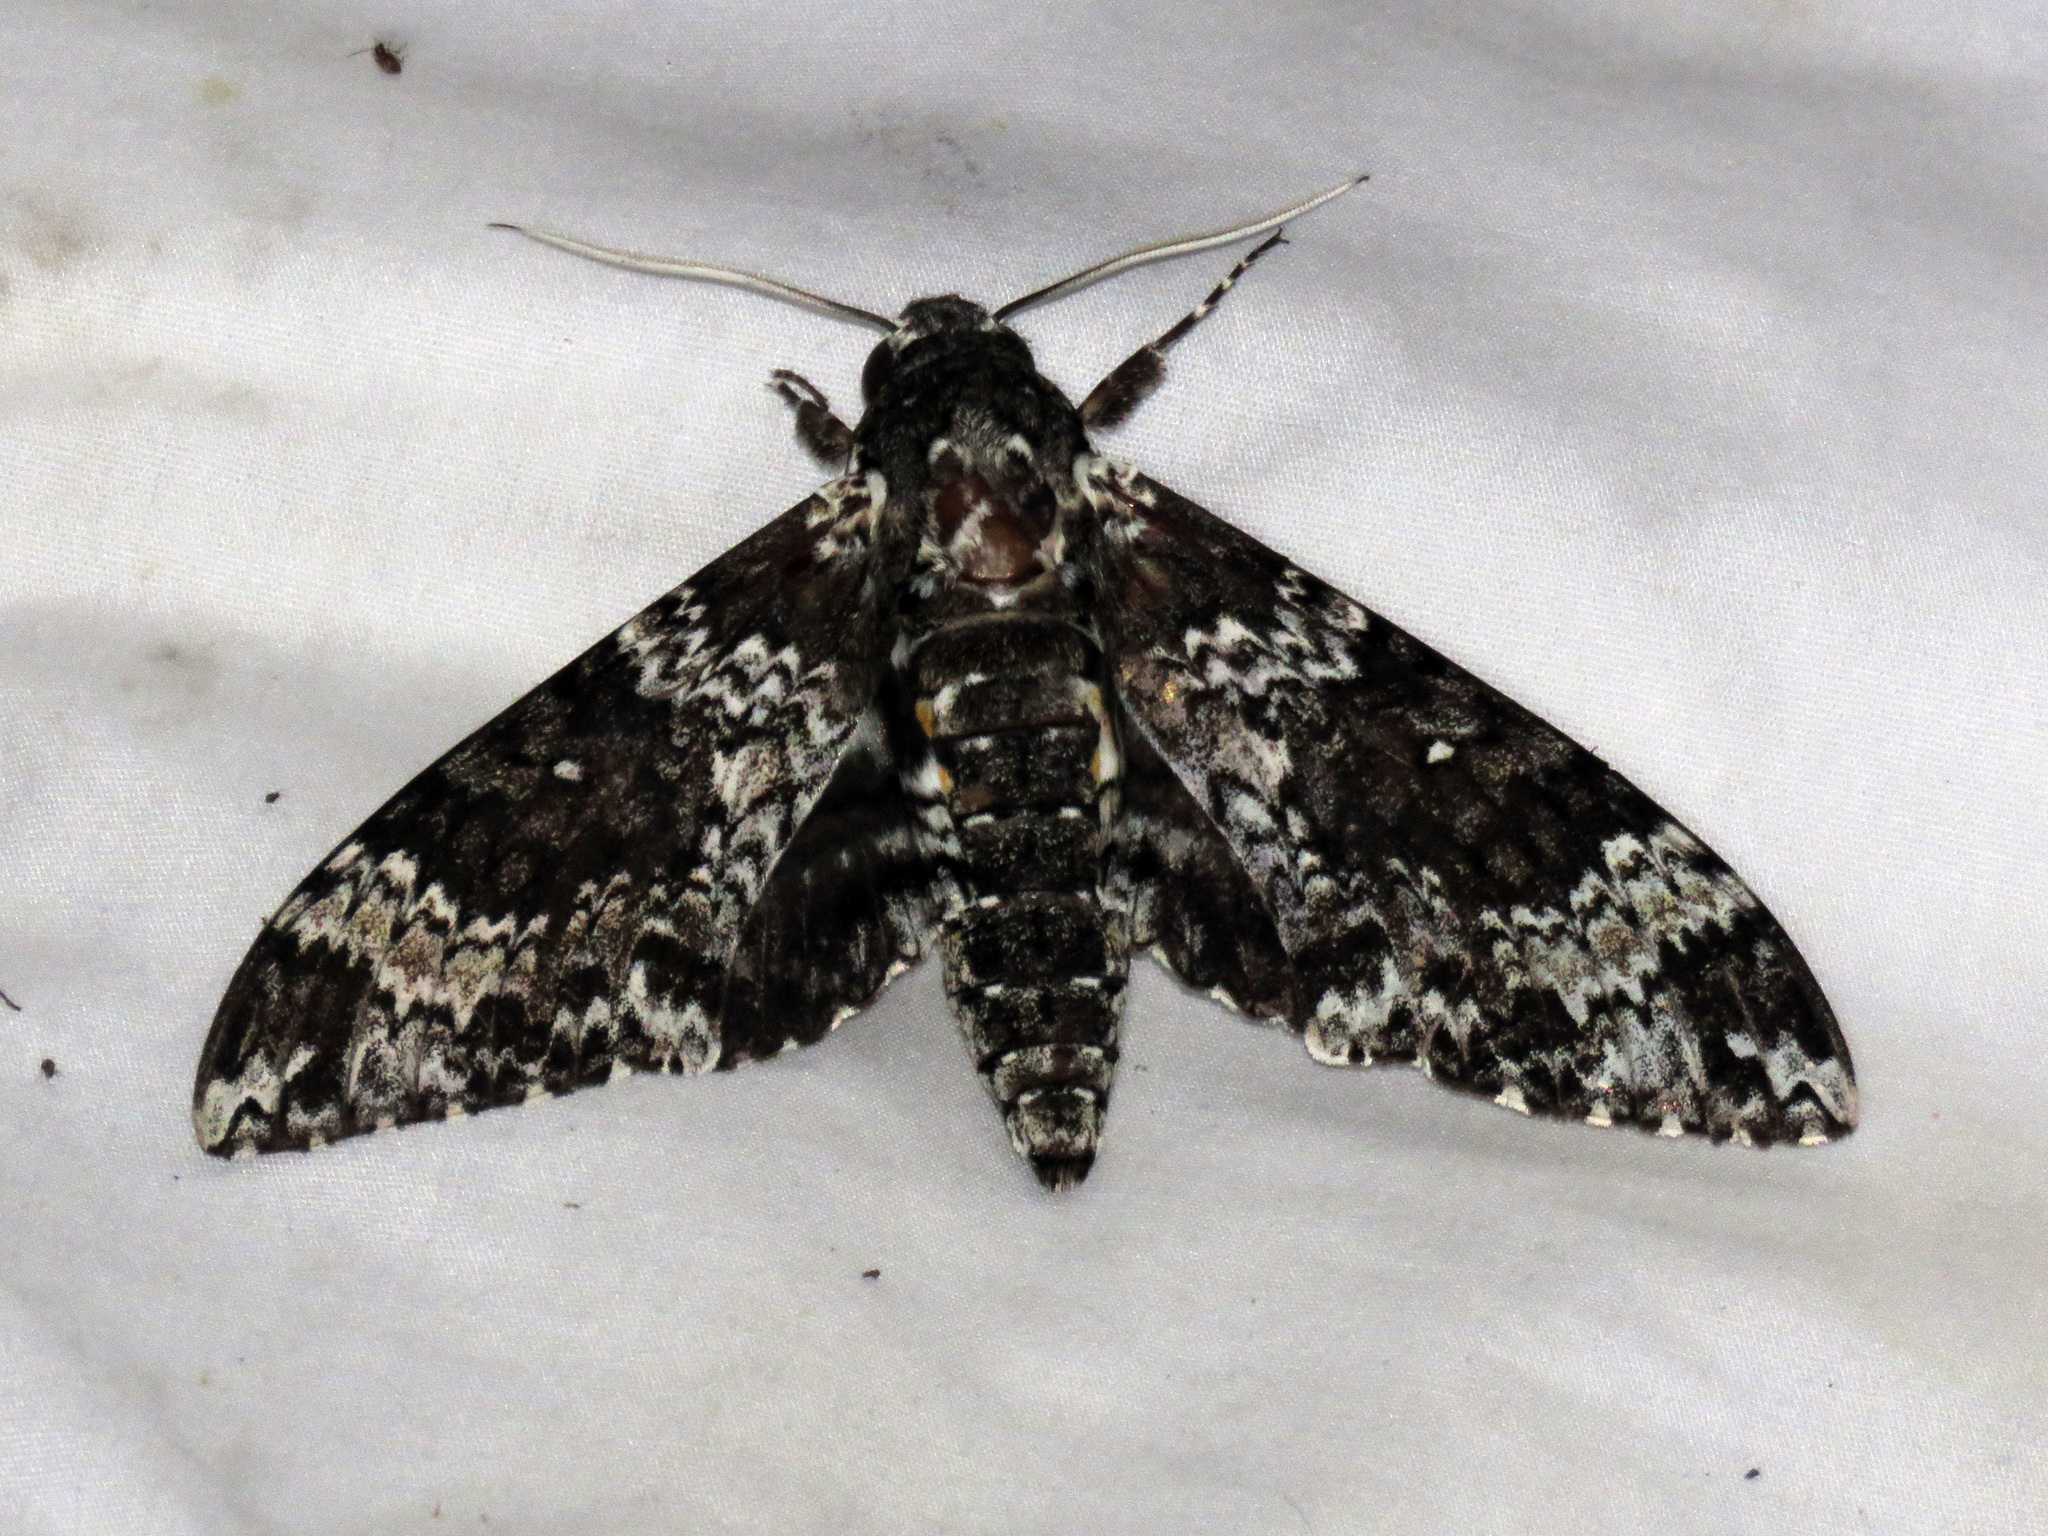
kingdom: Animalia
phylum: Arthropoda
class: Insecta
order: Lepidoptera
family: Sphingidae
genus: Manduca
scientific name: Manduca rustica
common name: Rustic sphinx
